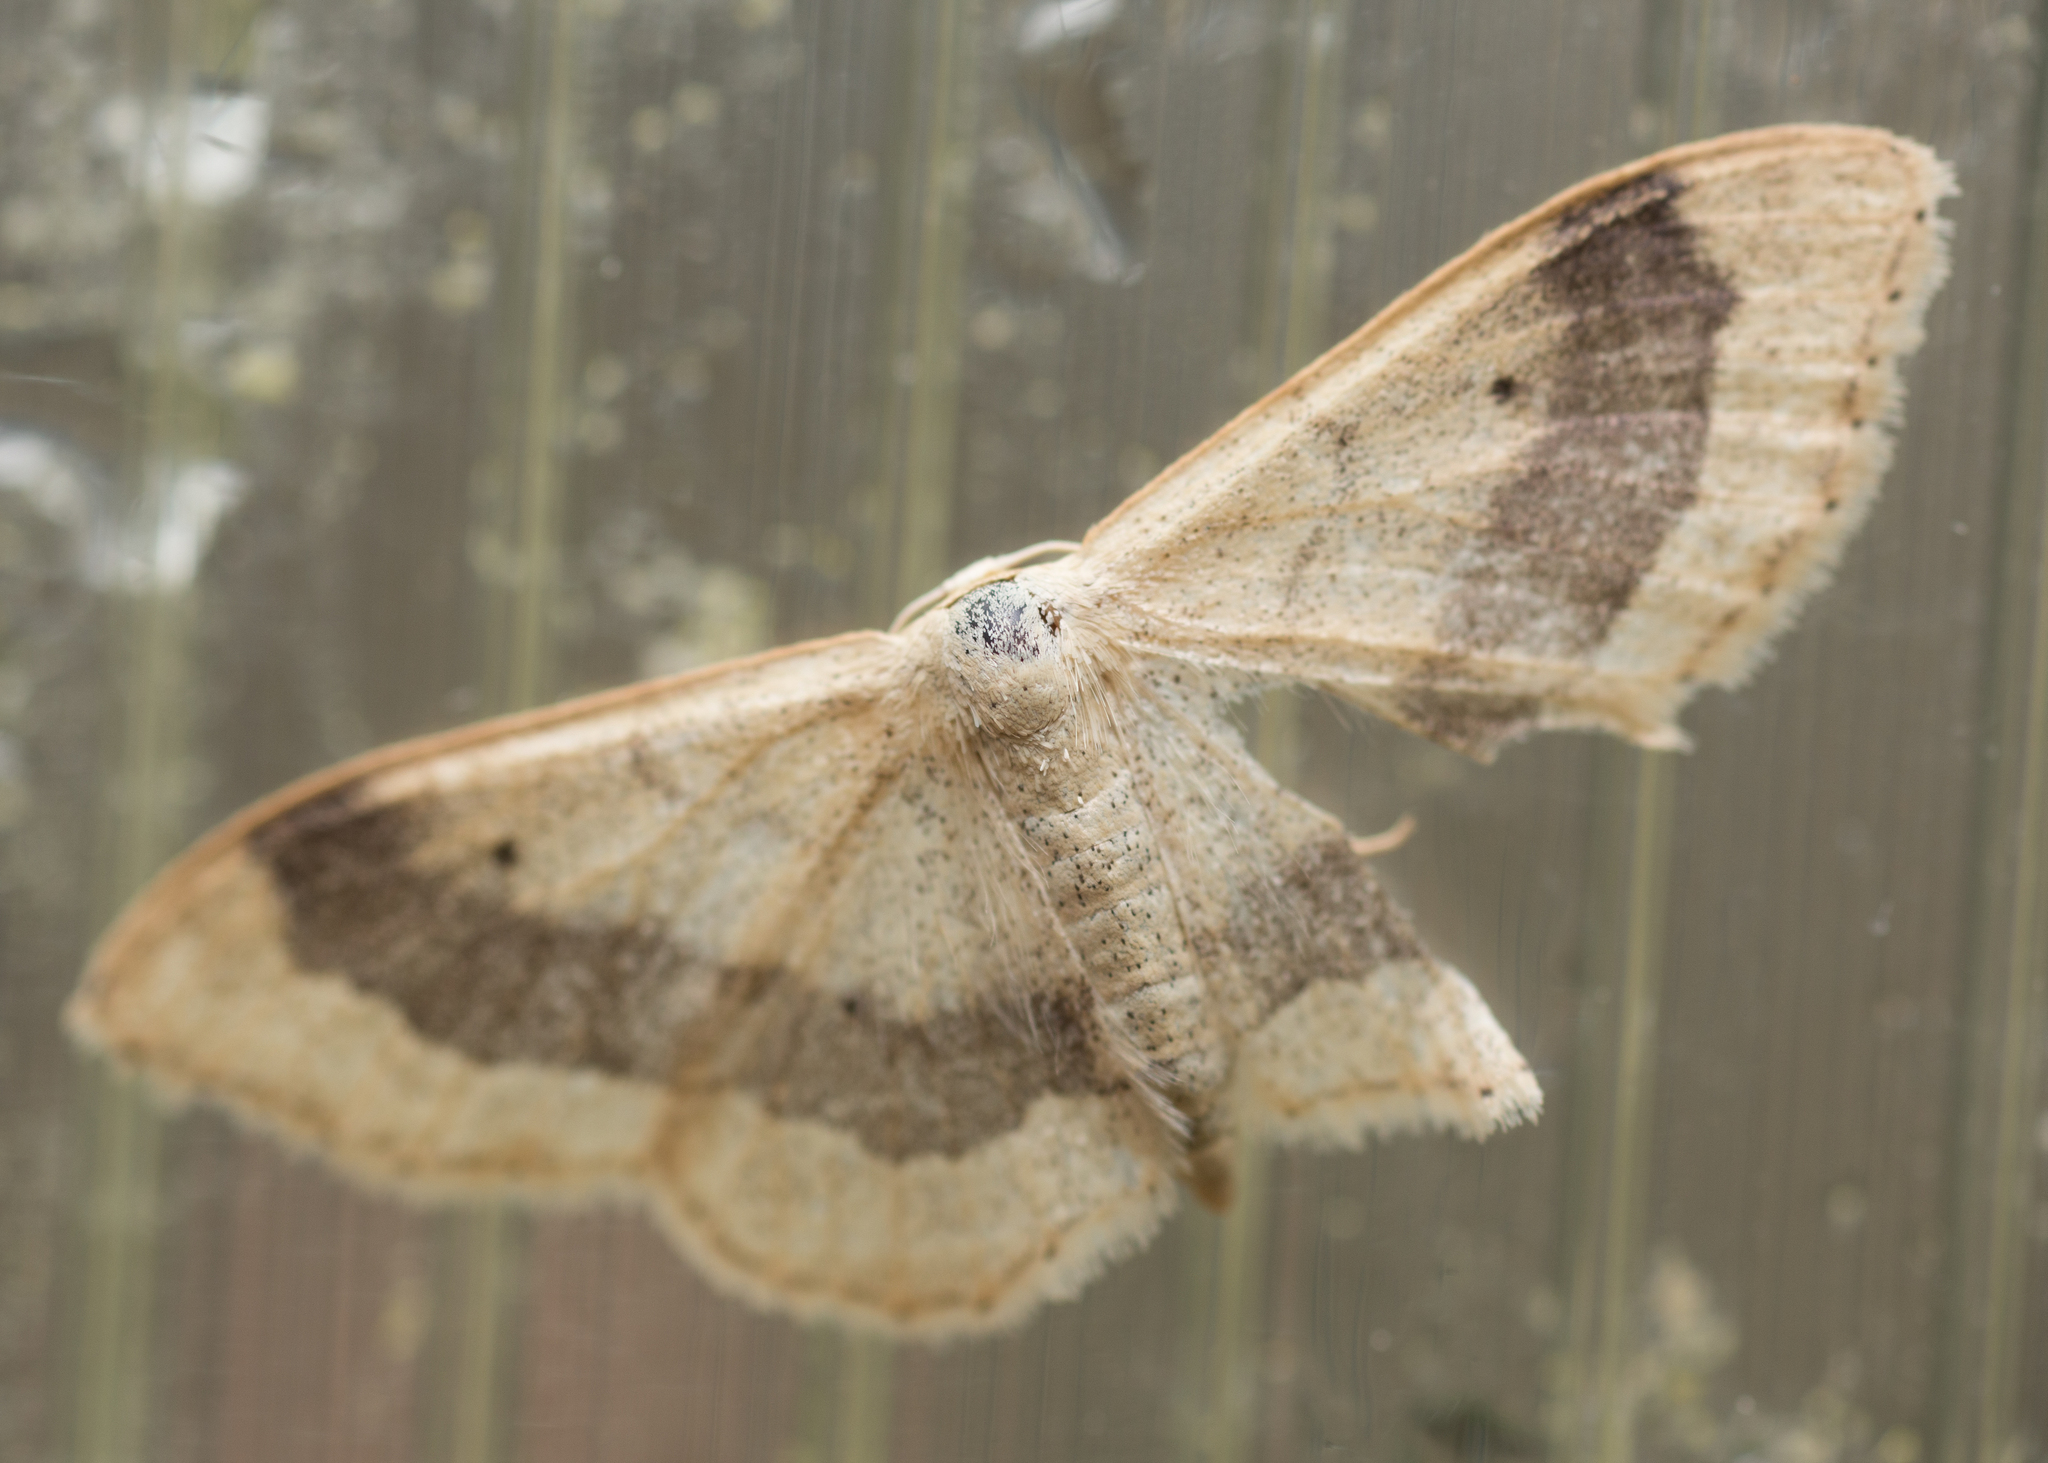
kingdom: Animalia
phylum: Arthropoda
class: Insecta
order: Lepidoptera
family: Geometridae
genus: Idaea
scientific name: Idaea aversata
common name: Riband wave
